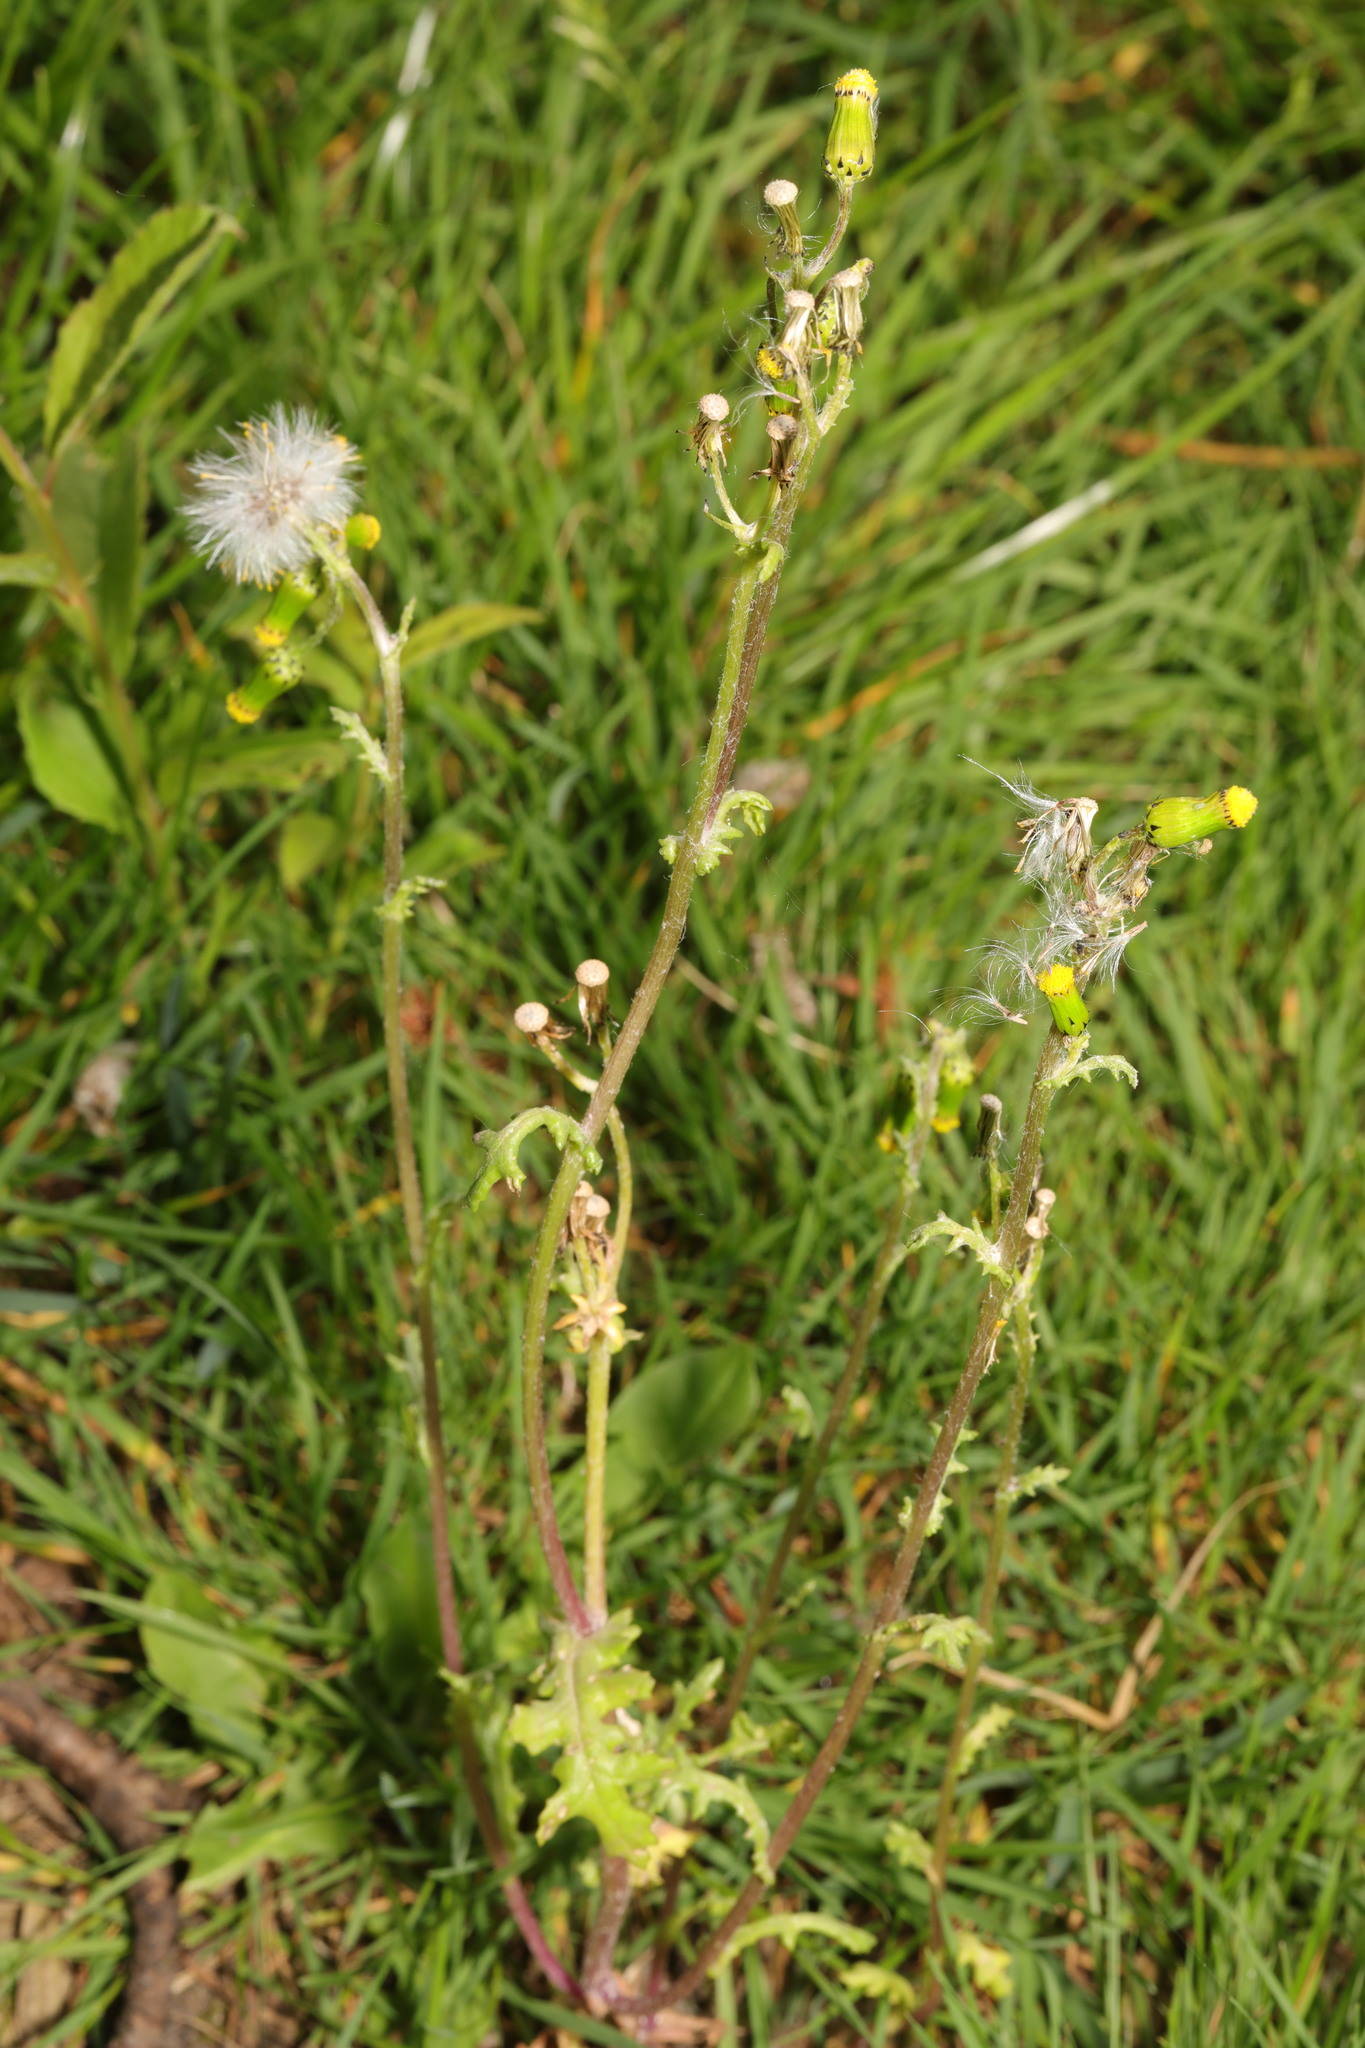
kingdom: Plantae
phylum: Tracheophyta
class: Magnoliopsida
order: Asterales
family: Asteraceae
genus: Senecio
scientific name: Senecio vulgaris
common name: Old-man-in-the-spring
